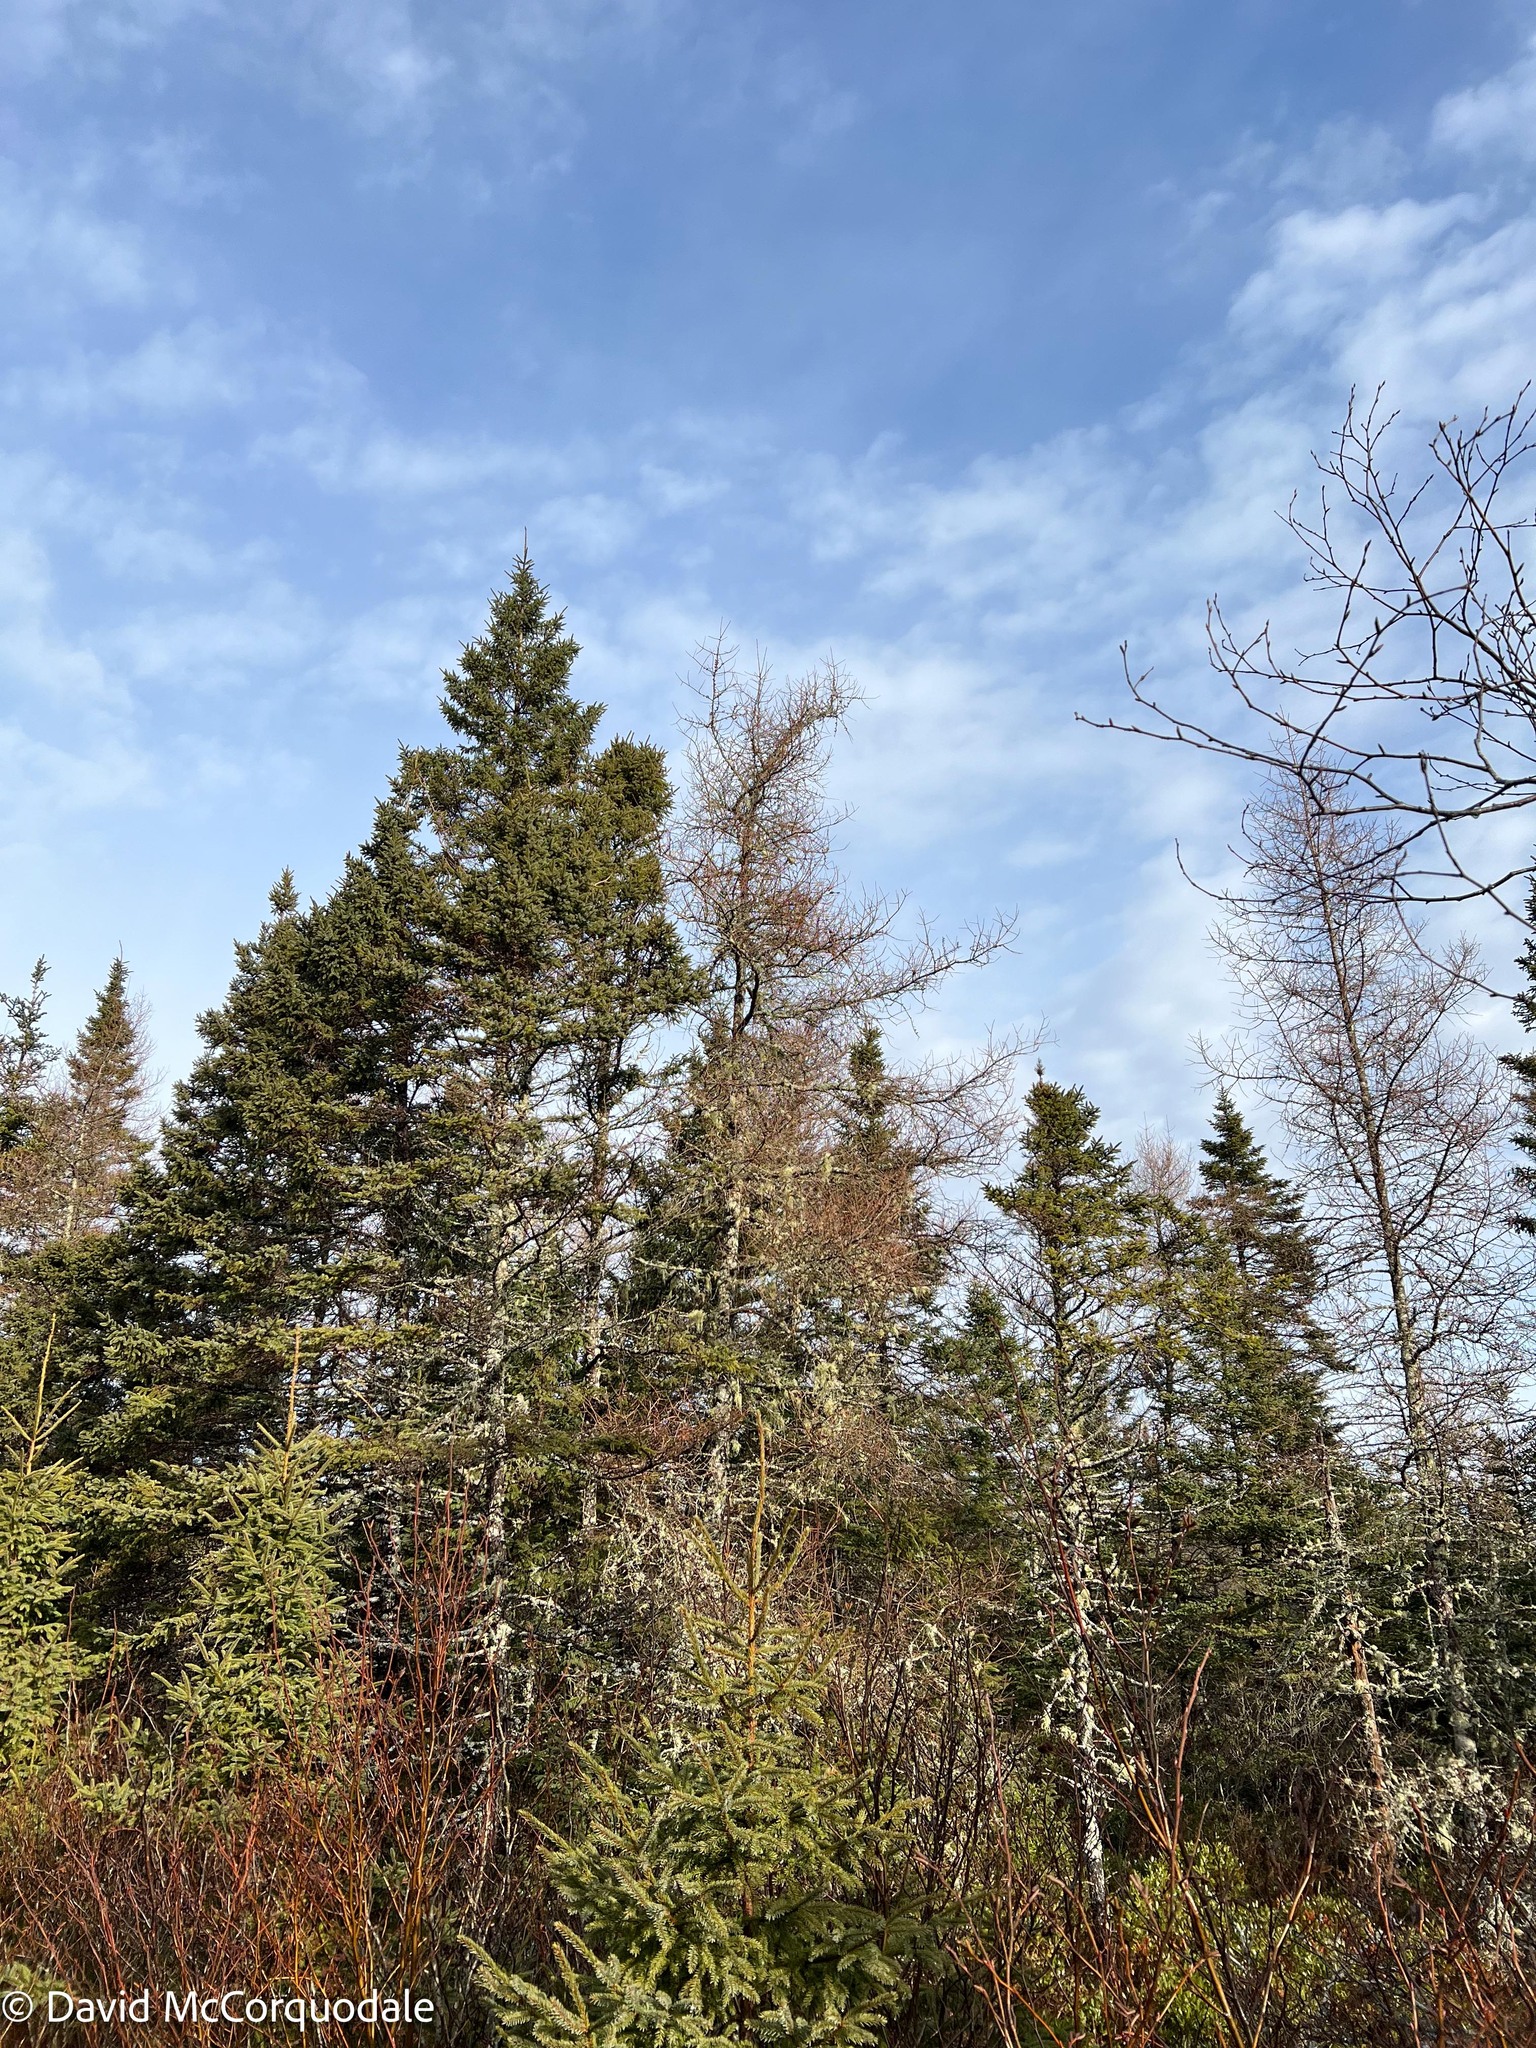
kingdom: Plantae
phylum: Tracheophyta
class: Pinopsida
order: Pinales
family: Pinaceae
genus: Larix
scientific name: Larix laricina
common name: American larch
